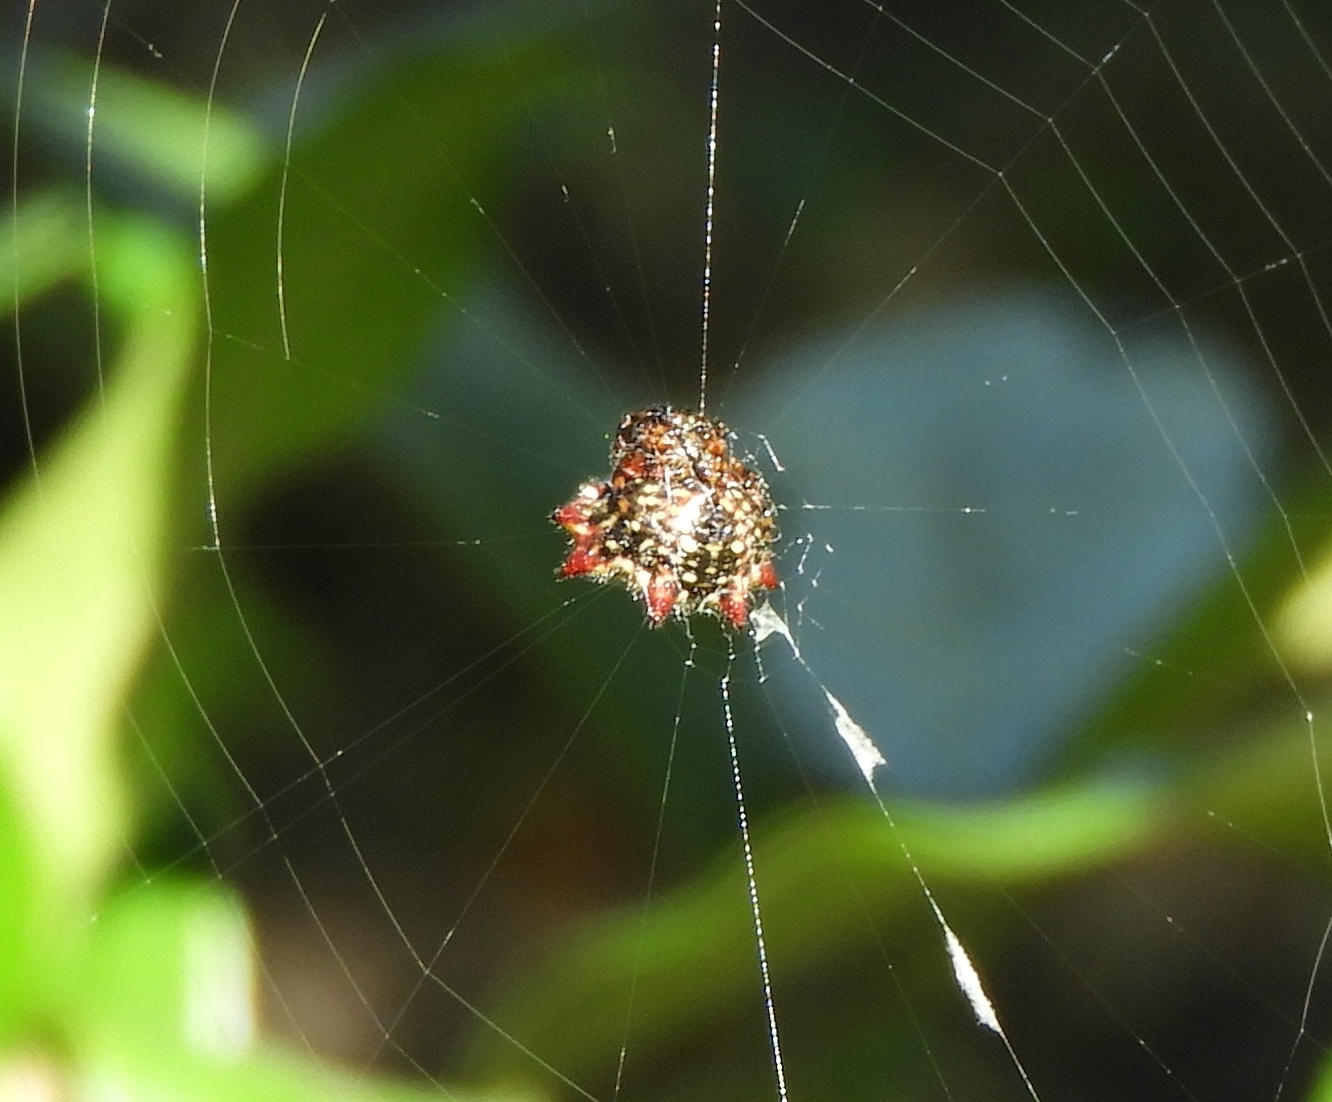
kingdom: Animalia
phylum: Arthropoda
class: Arachnida
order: Araneae
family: Araneidae
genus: Gasteracantha
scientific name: Gasteracantha cancriformis
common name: Orb weavers
